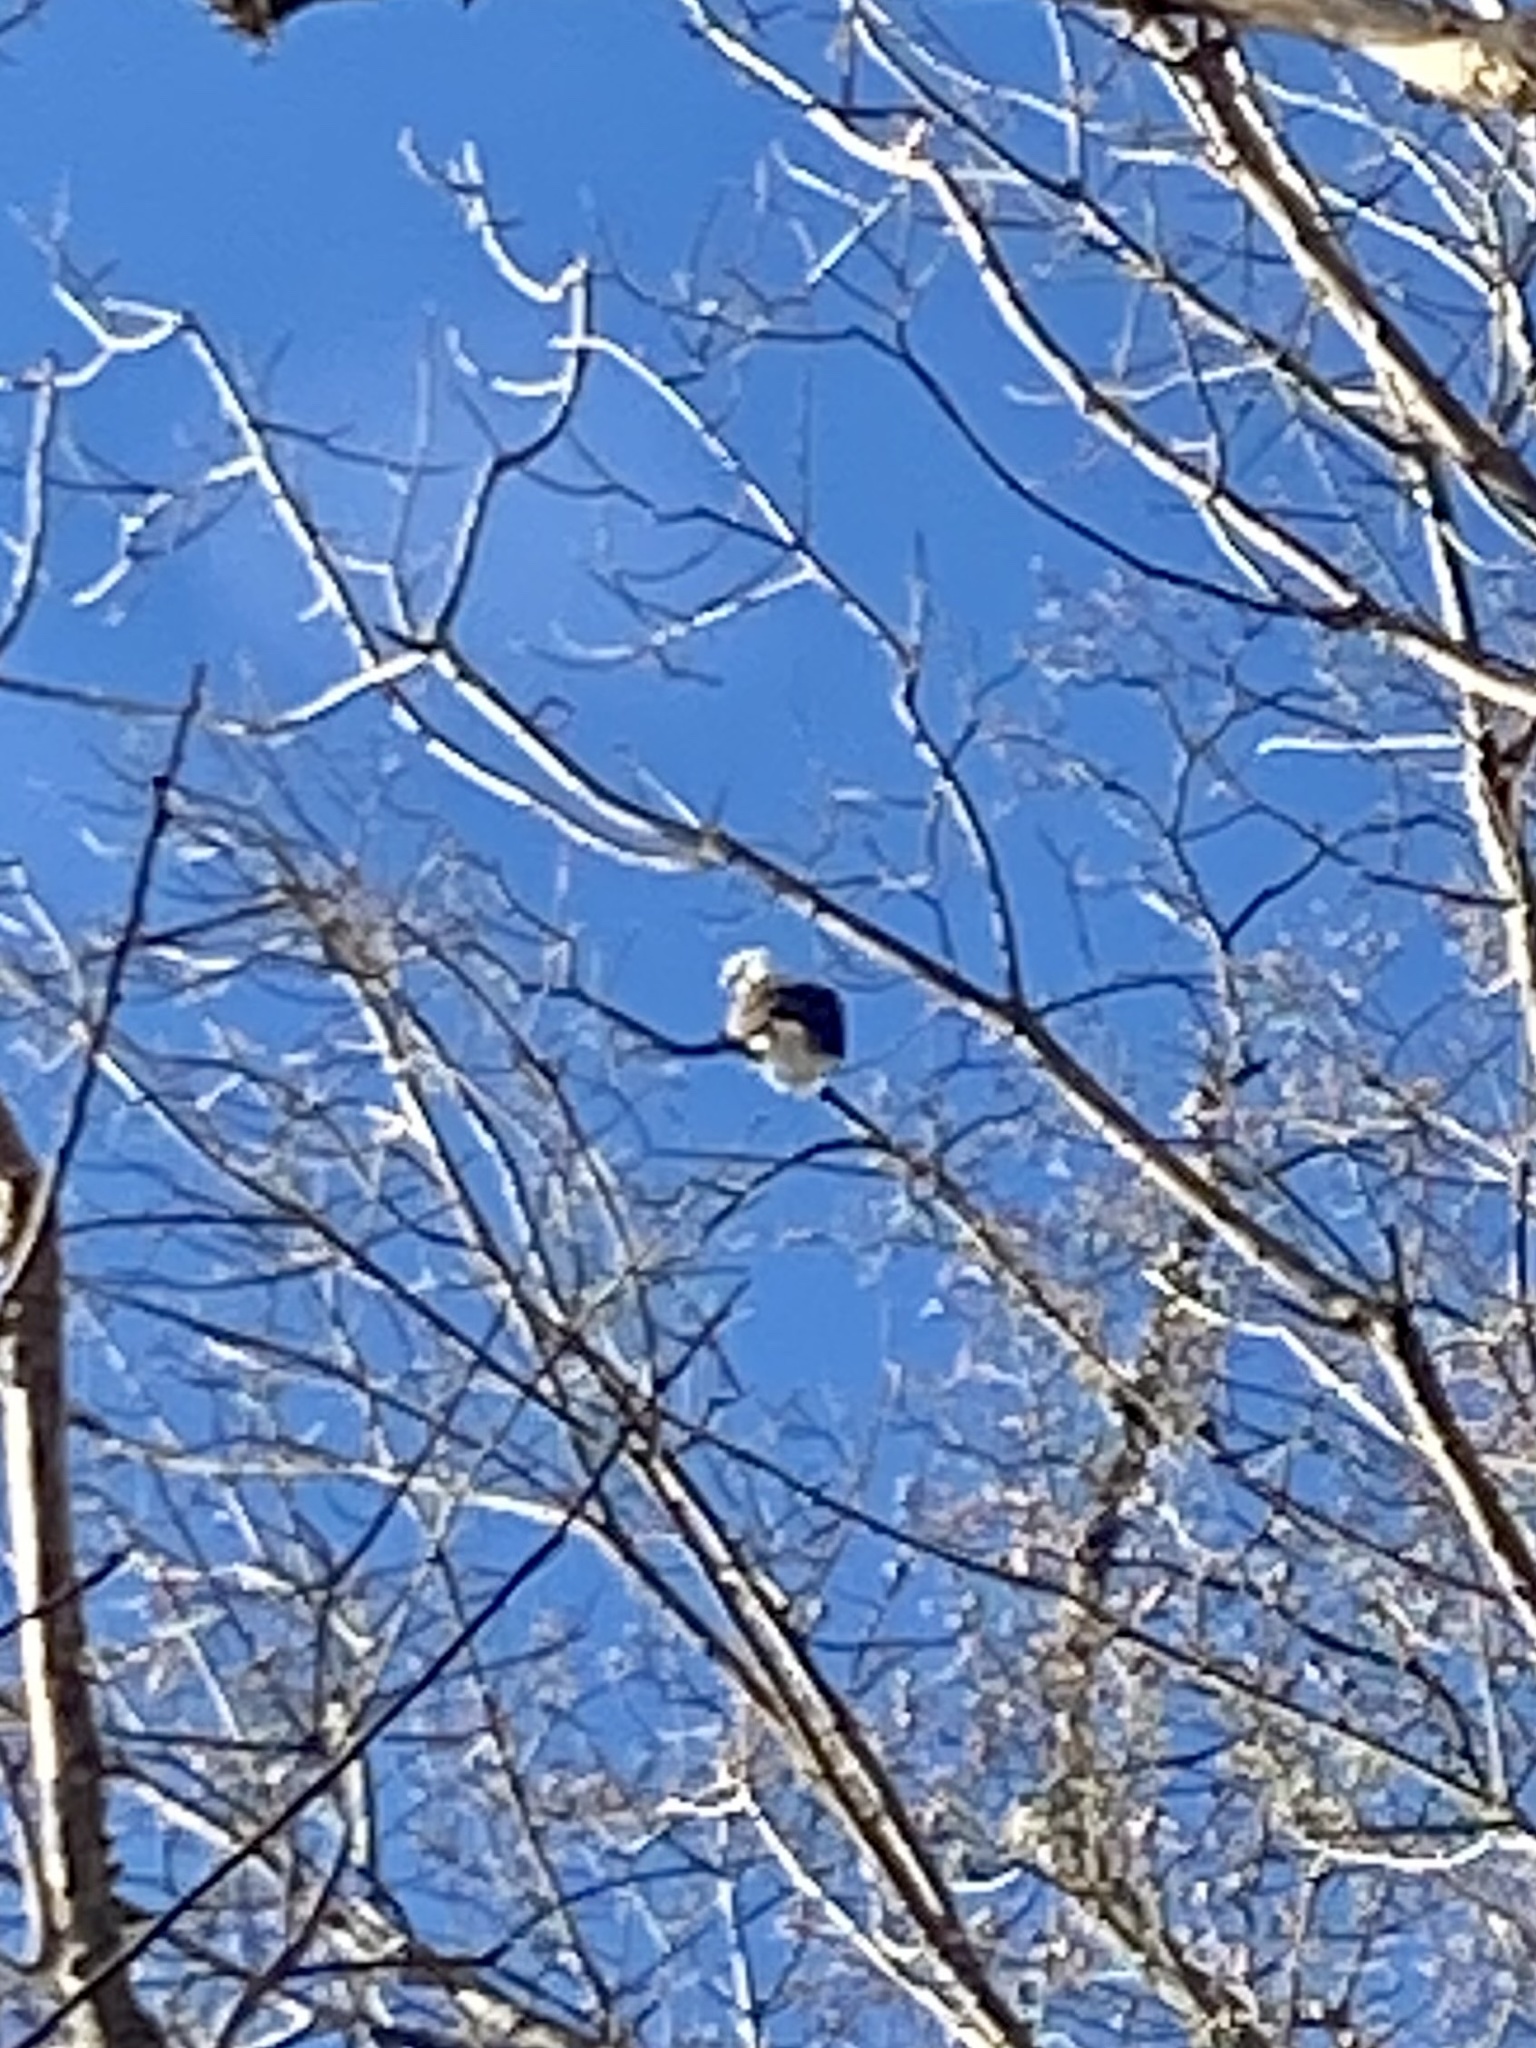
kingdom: Animalia
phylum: Chordata
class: Aves
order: Accipitriformes
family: Accipitridae
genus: Haliaeetus
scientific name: Haliaeetus leucocephalus
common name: Bald eagle
